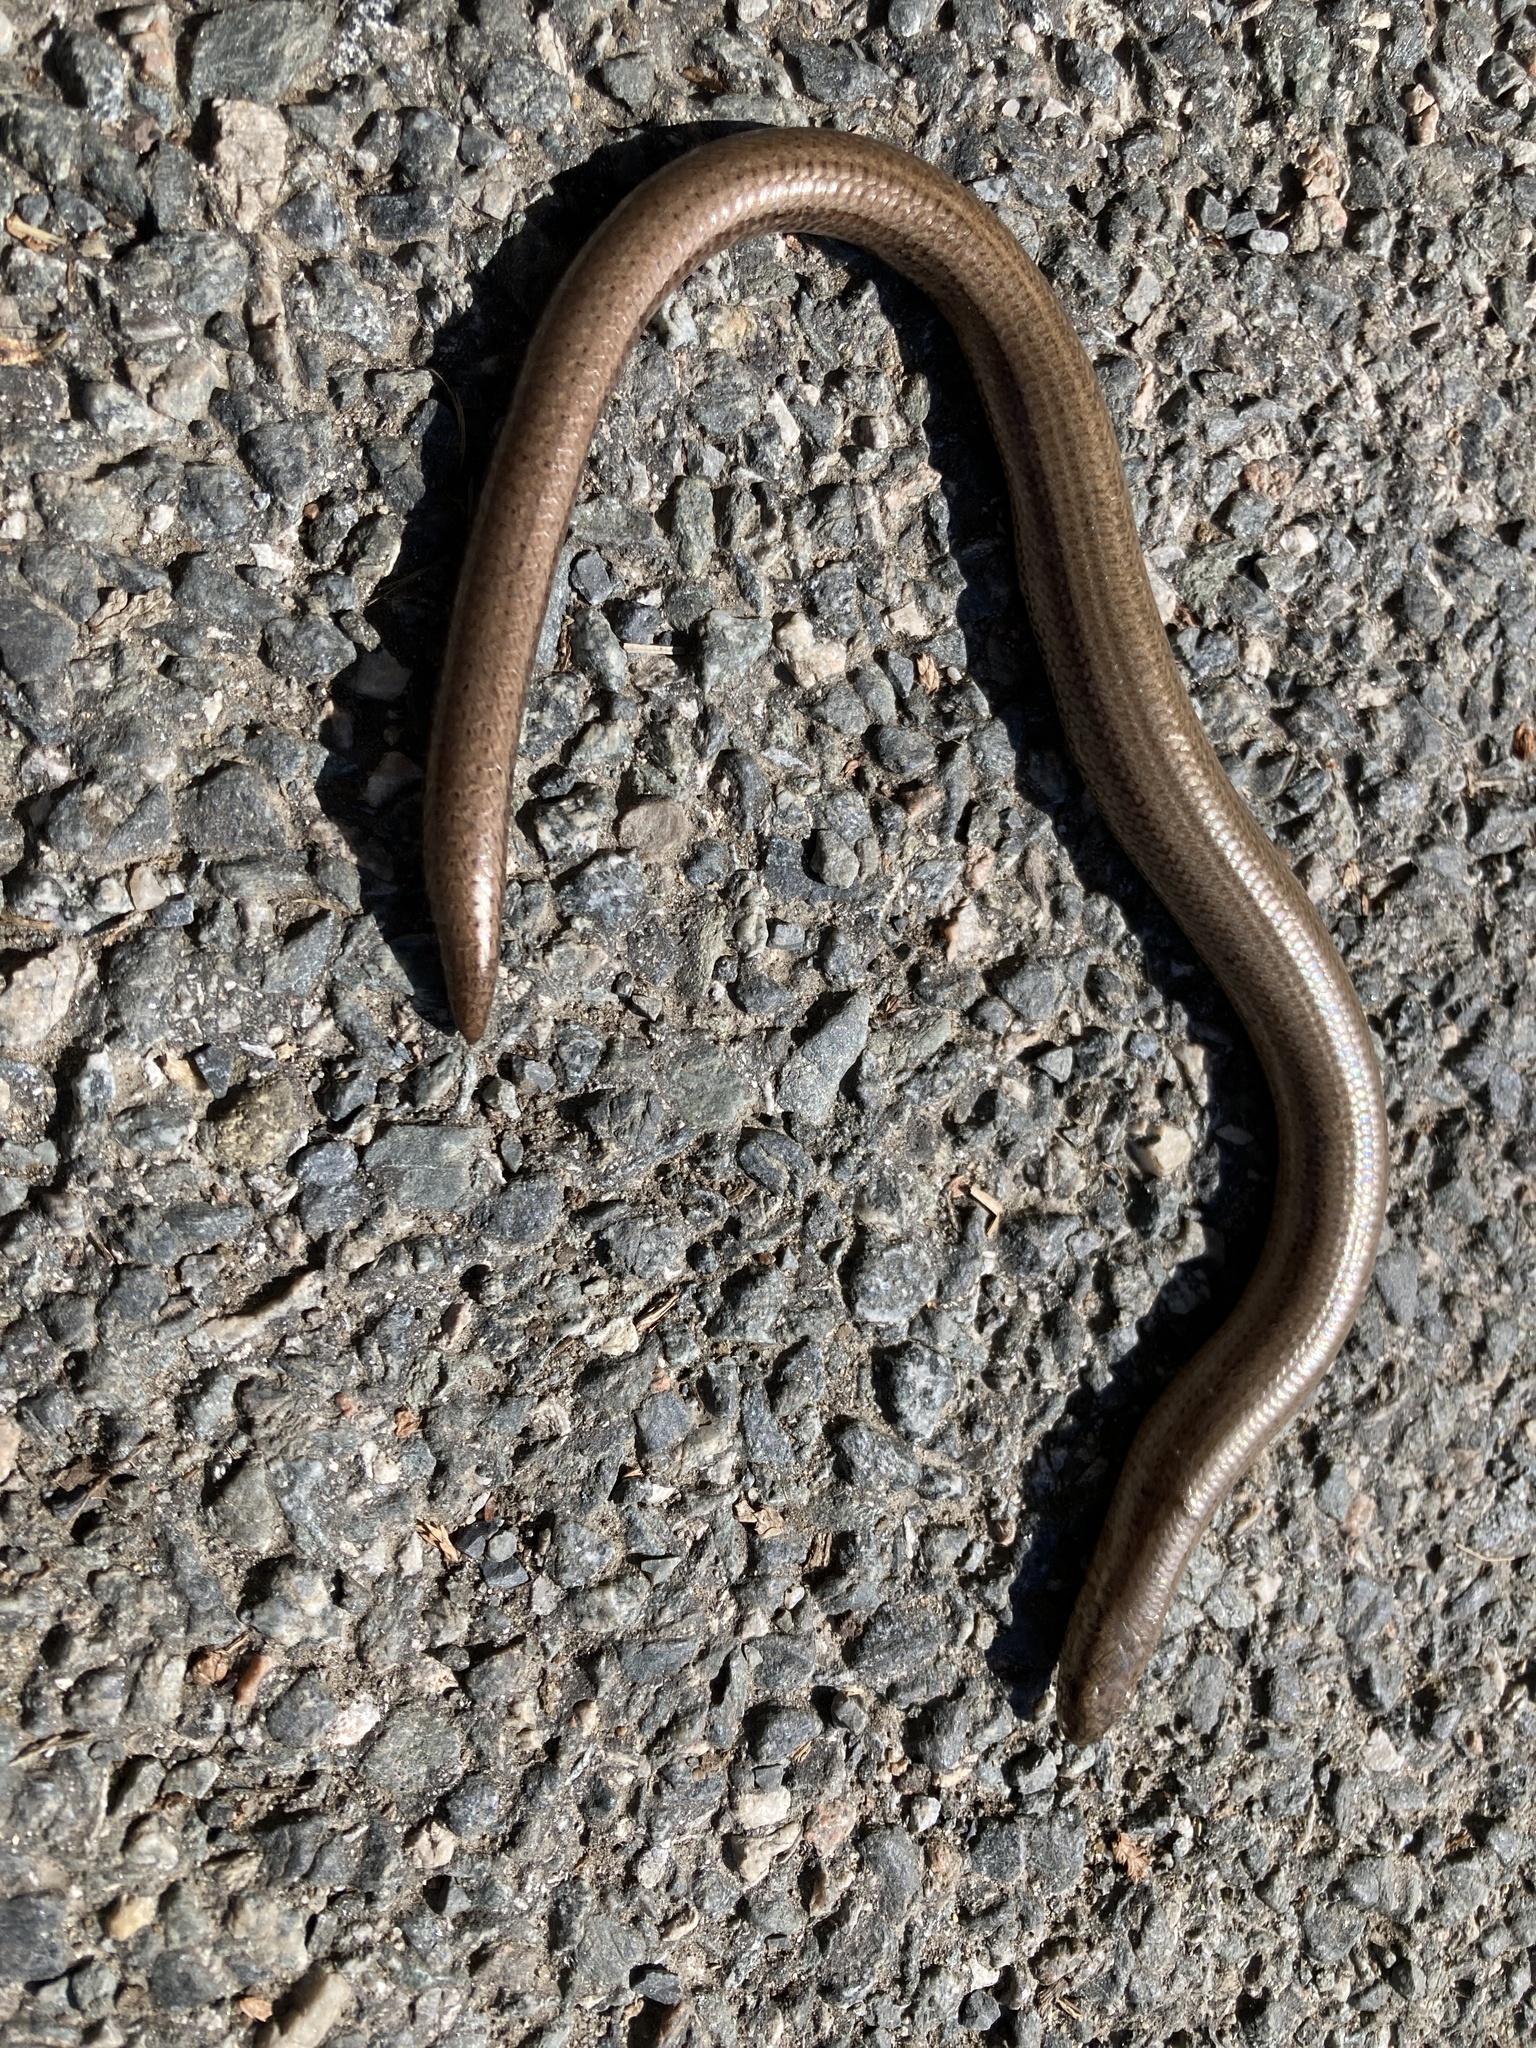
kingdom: Animalia
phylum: Chordata
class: Squamata
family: Anguidae
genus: Anguis
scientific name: Anguis fragilis
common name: Slow worm
